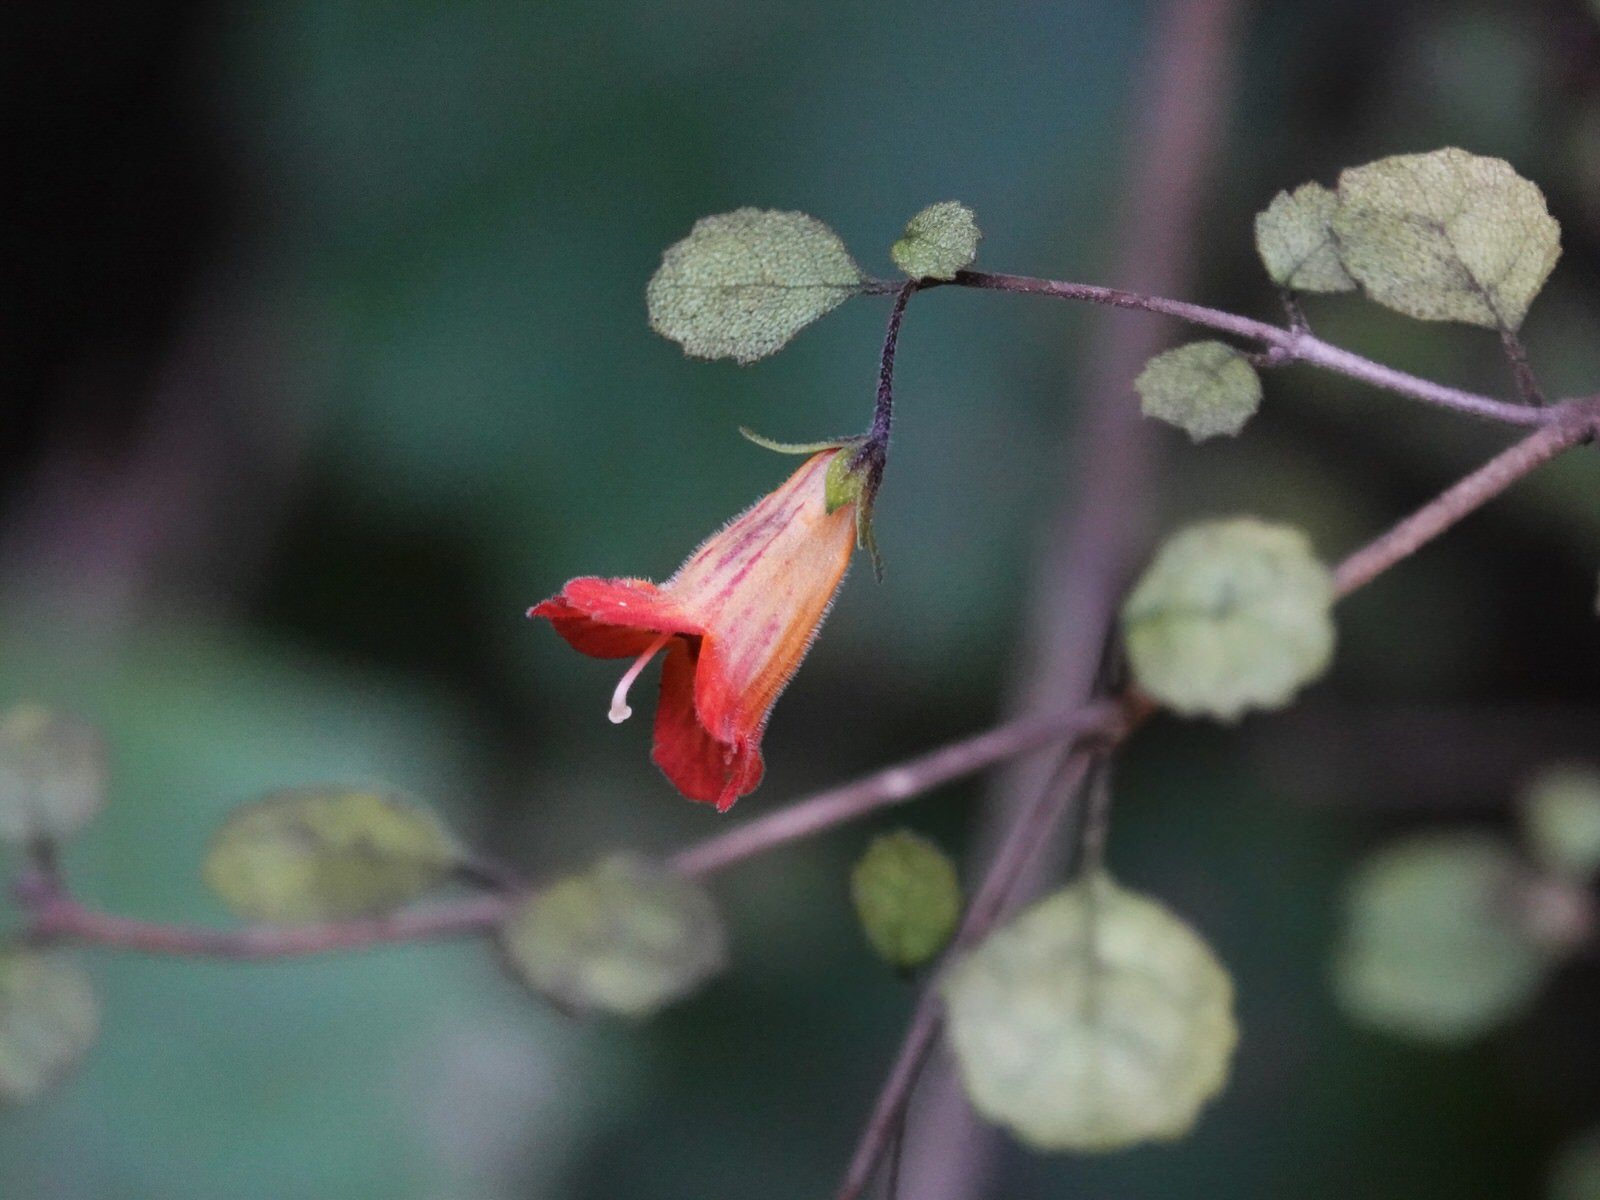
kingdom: Plantae
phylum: Tracheophyta
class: Magnoliopsida
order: Lamiales
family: Gesneriaceae
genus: Rhabdothamnus
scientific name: Rhabdothamnus solandri
